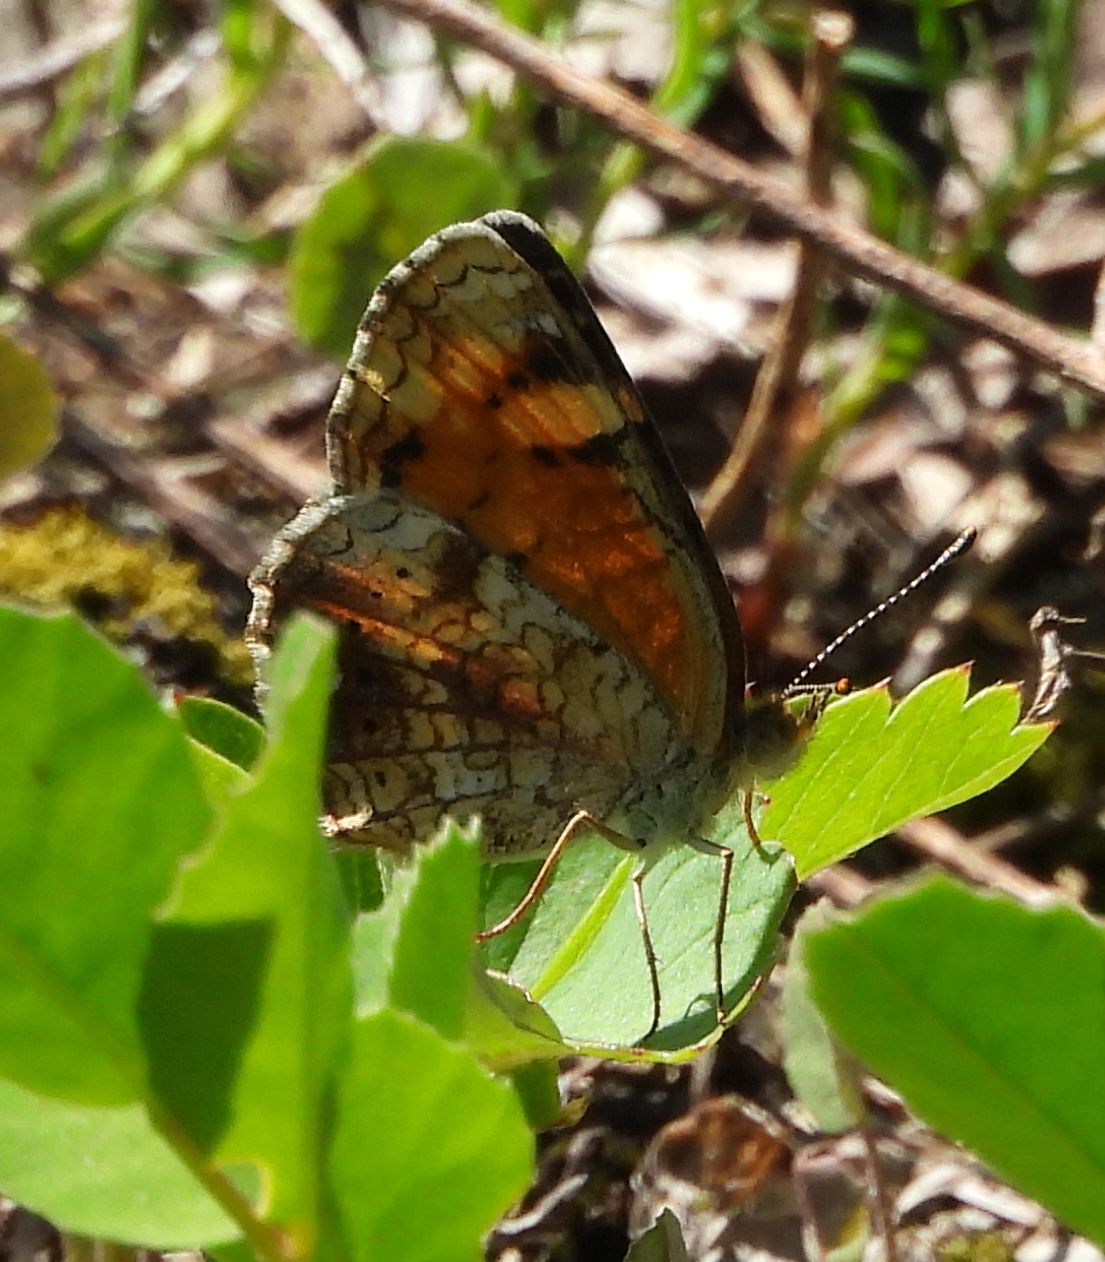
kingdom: Animalia
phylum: Arthropoda
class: Insecta
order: Lepidoptera
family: Nymphalidae
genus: Phyciodes
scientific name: Phyciodes tharos
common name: Pearl crescent
